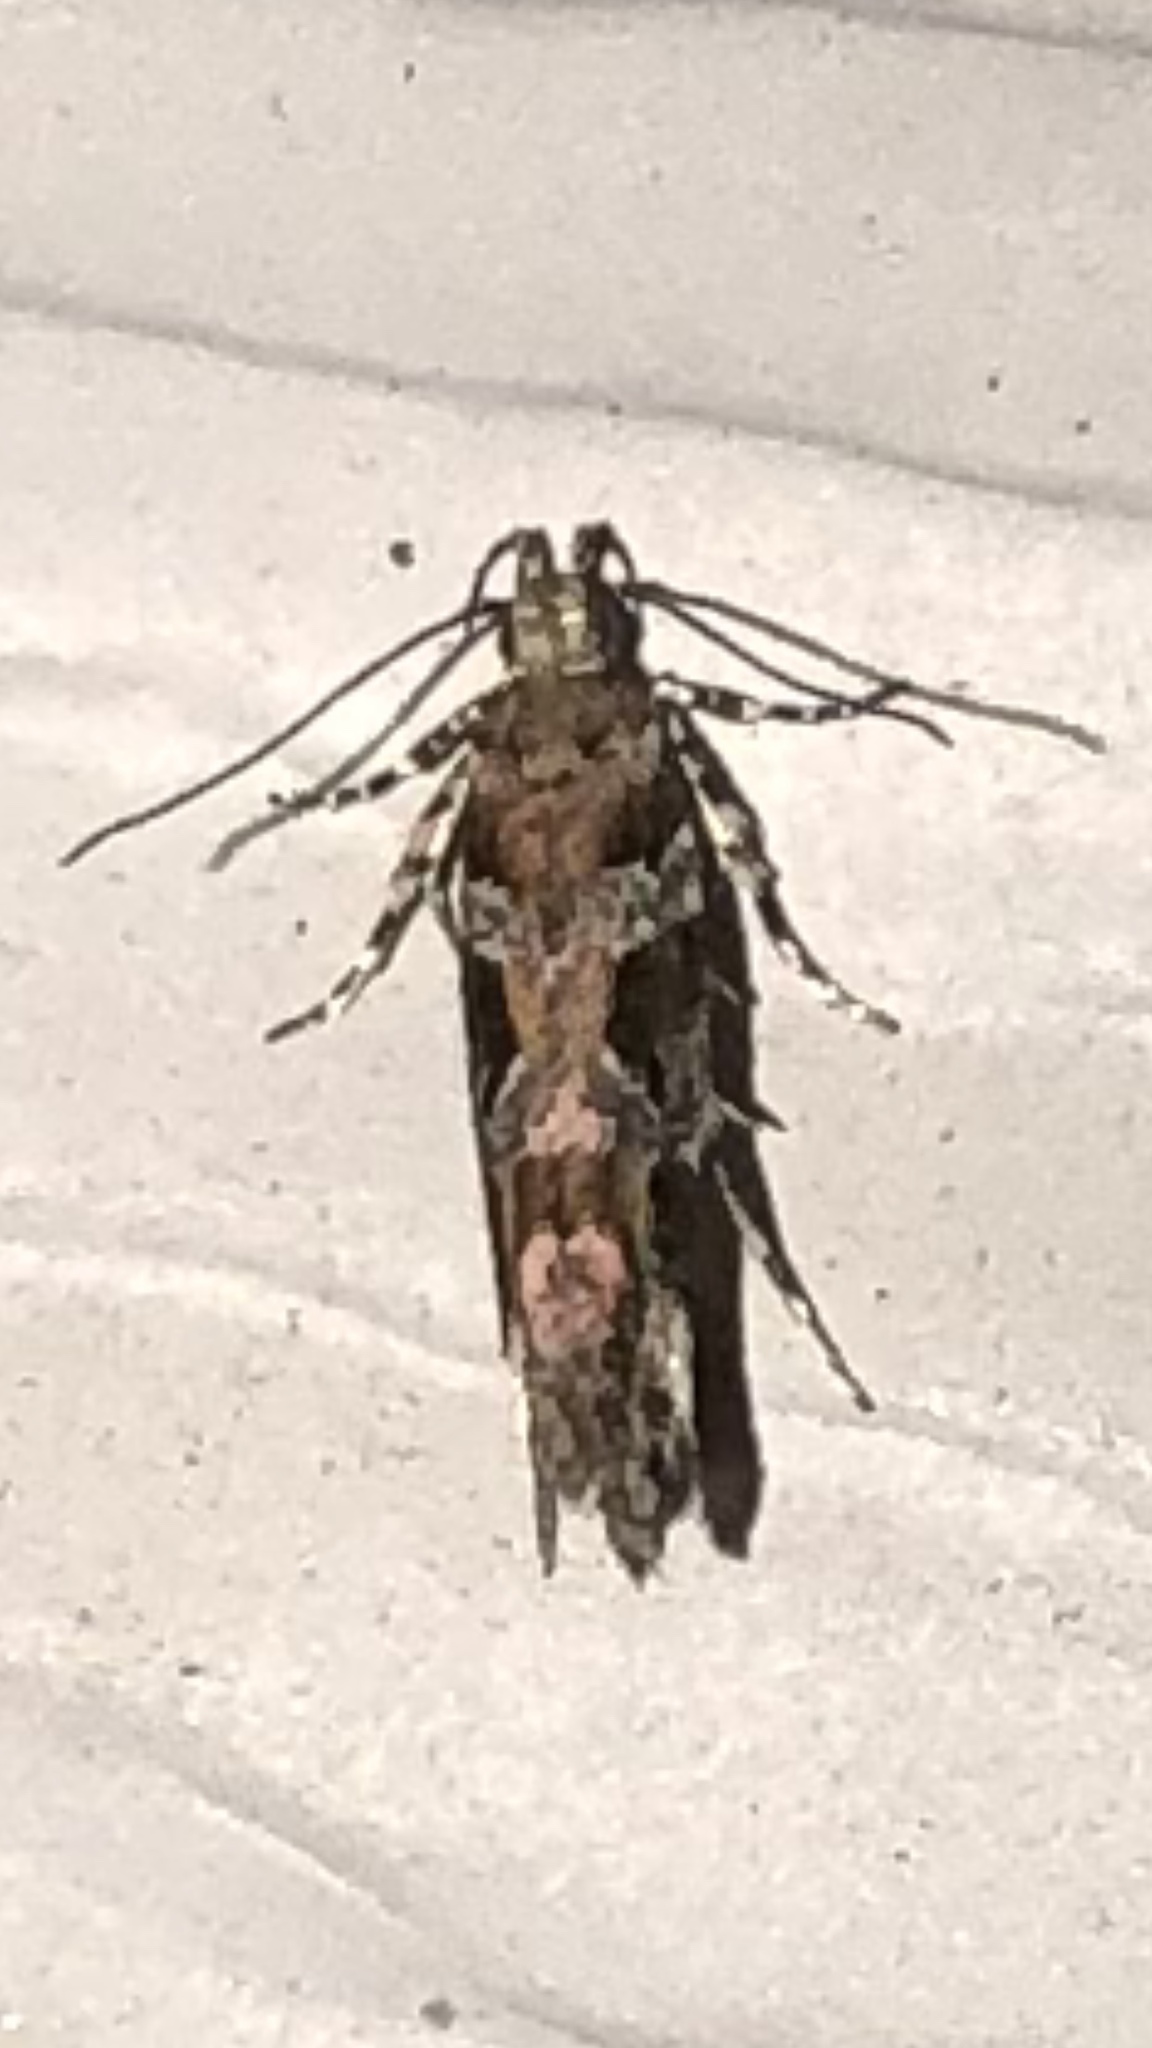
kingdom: Animalia
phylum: Arthropoda
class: Insecta
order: Lepidoptera
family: Gelechiidae
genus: Aristotelia
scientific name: Aristotelia roseosuffusella
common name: Pink-washed aristotelia moth
